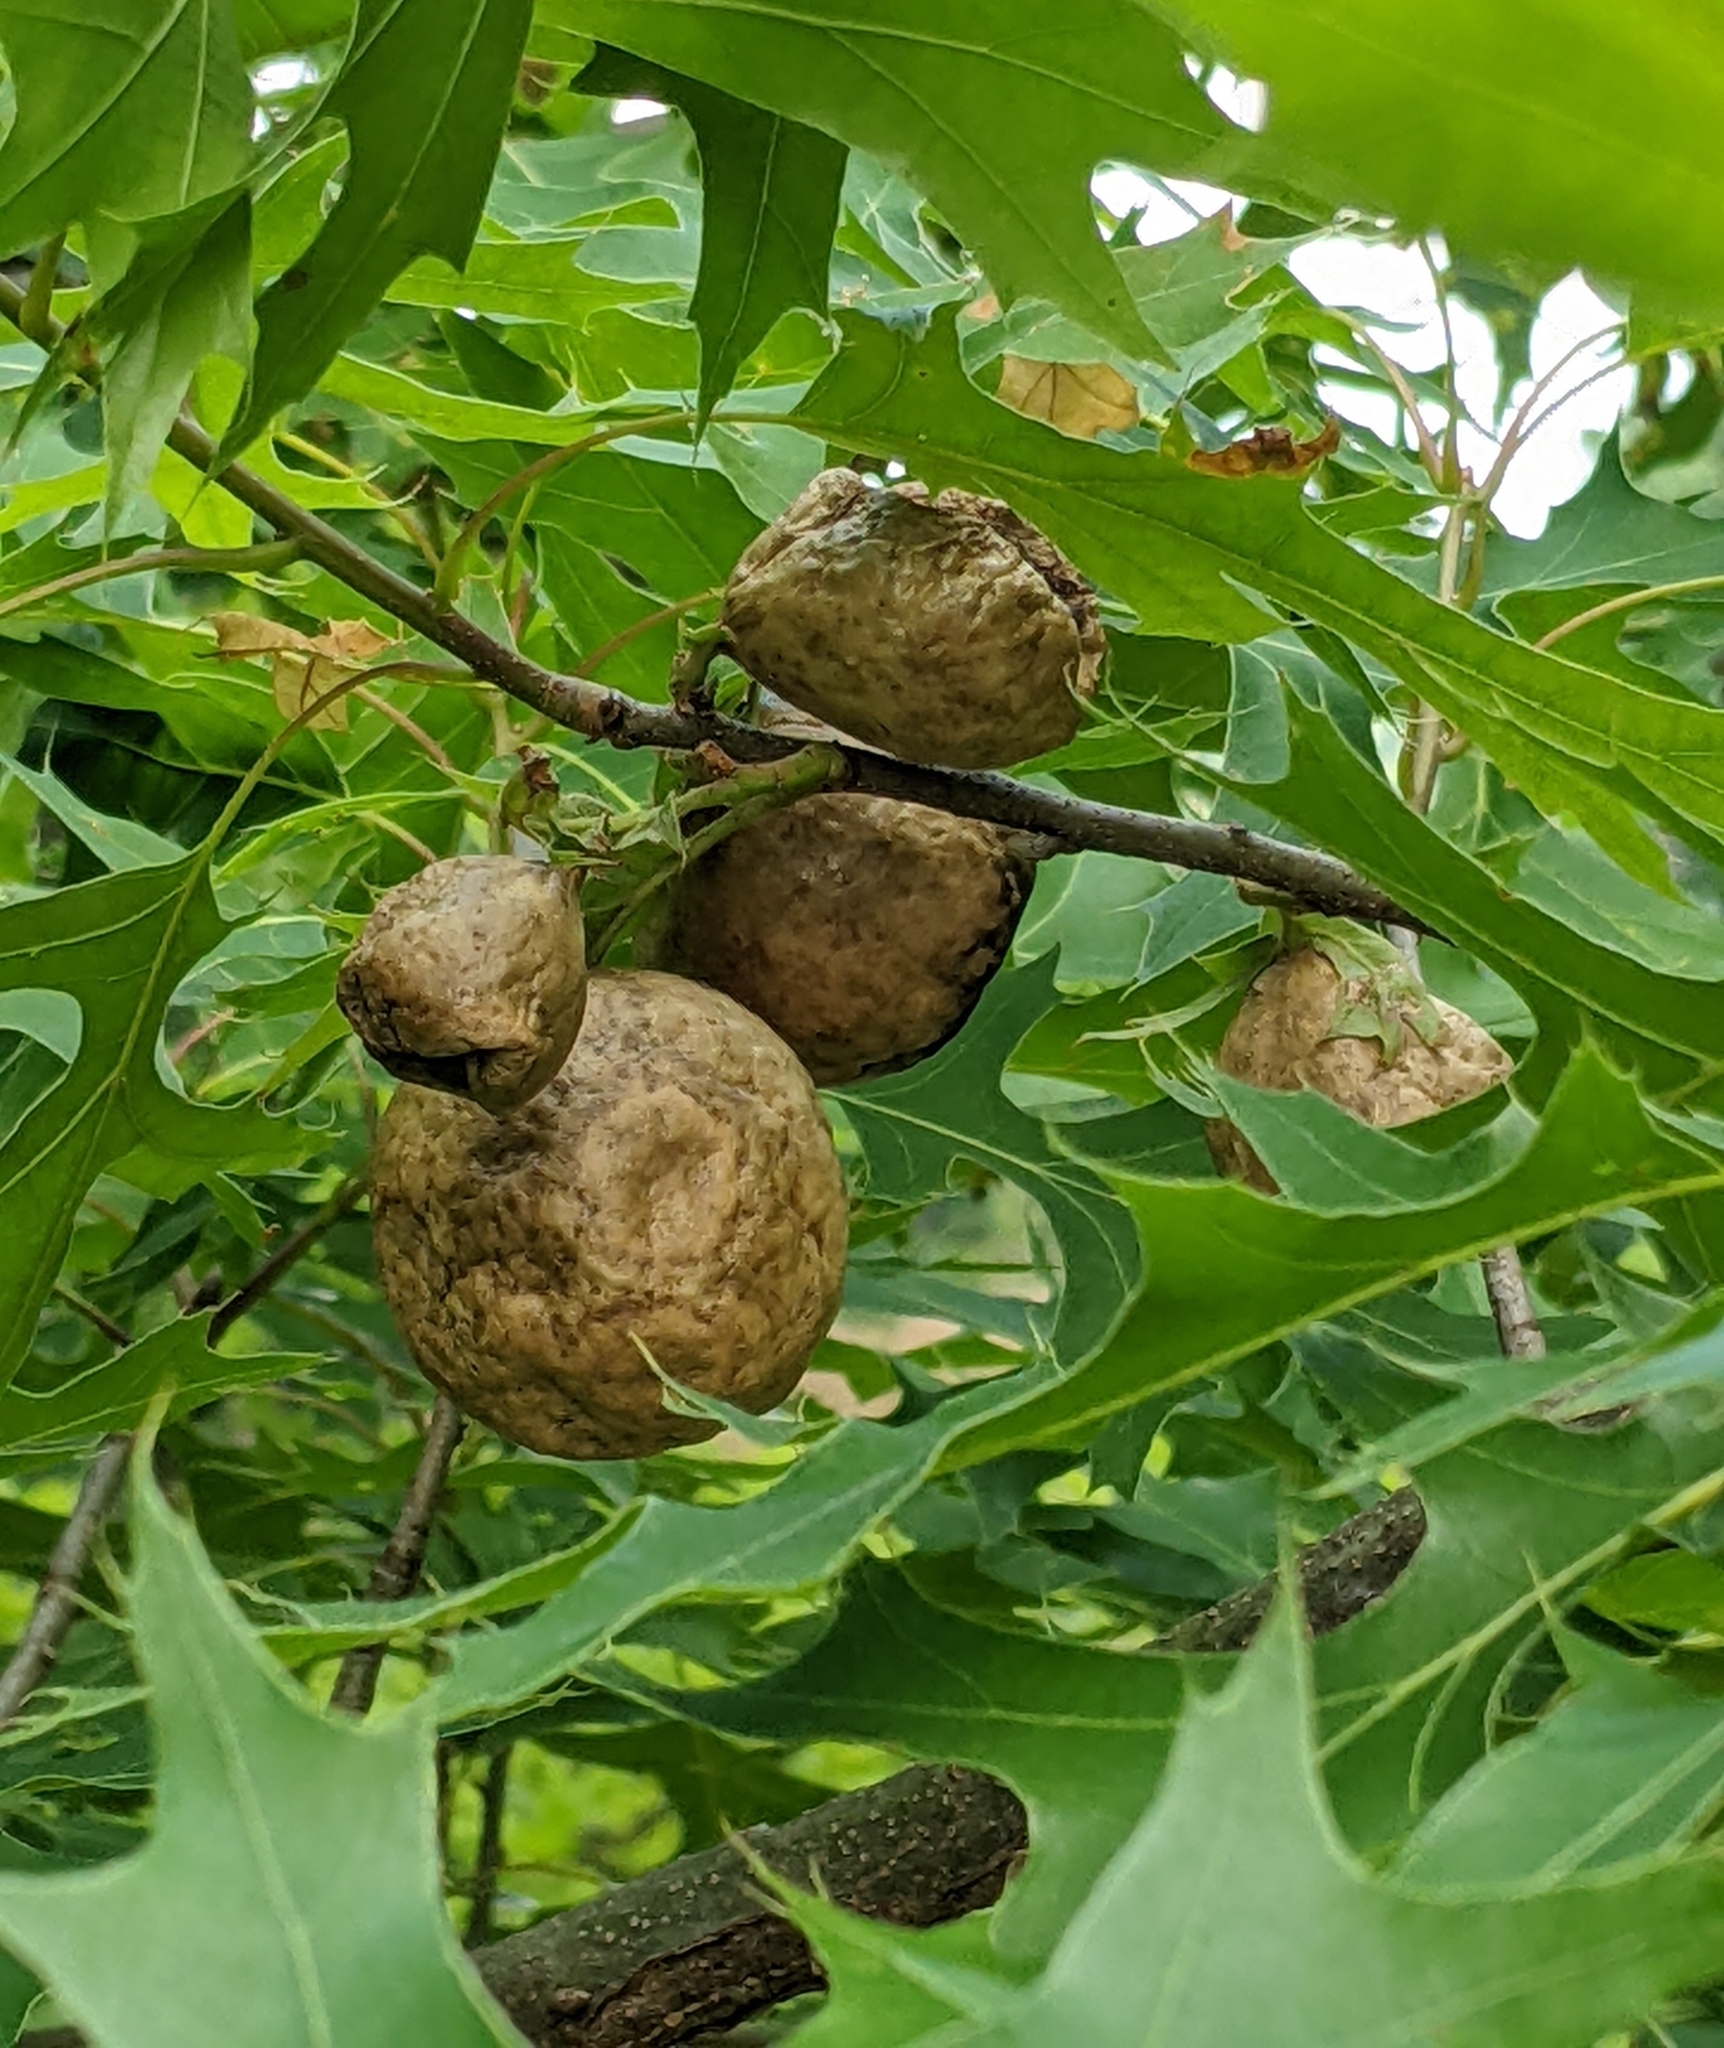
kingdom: Animalia
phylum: Arthropoda
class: Insecta
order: Hymenoptera
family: Cynipidae
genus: Amphibolips
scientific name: Amphibolips
